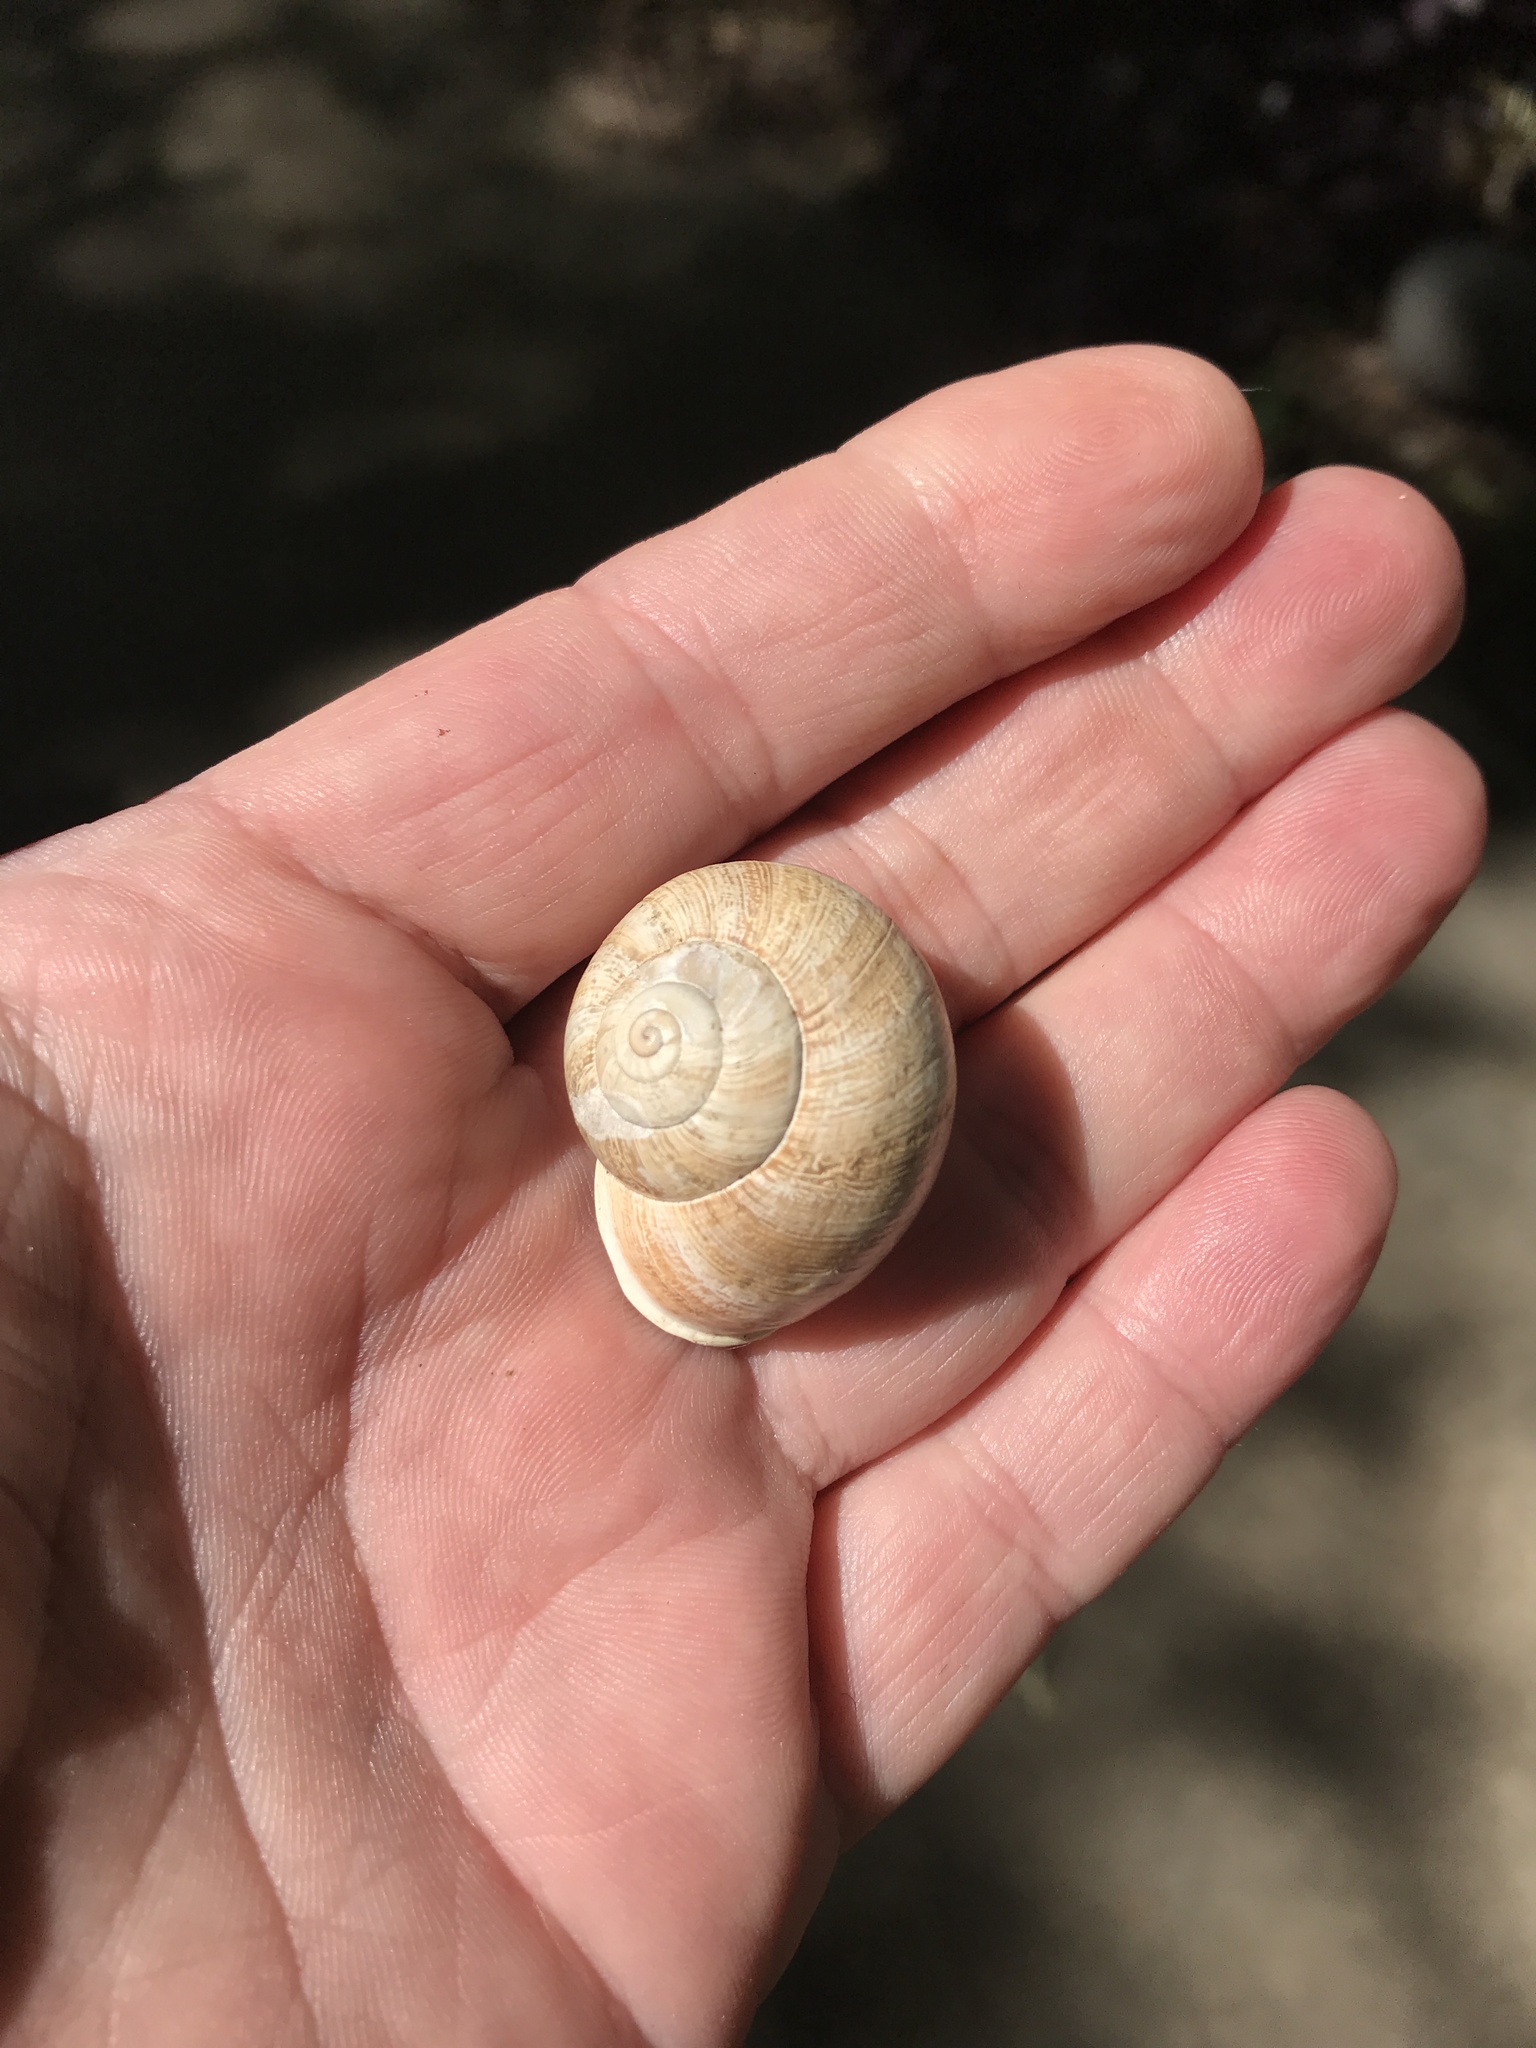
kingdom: Animalia
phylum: Mollusca
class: Gastropoda
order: Stylommatophora
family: Helicidae
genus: Otala
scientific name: Otala lactea
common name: Milk snail
